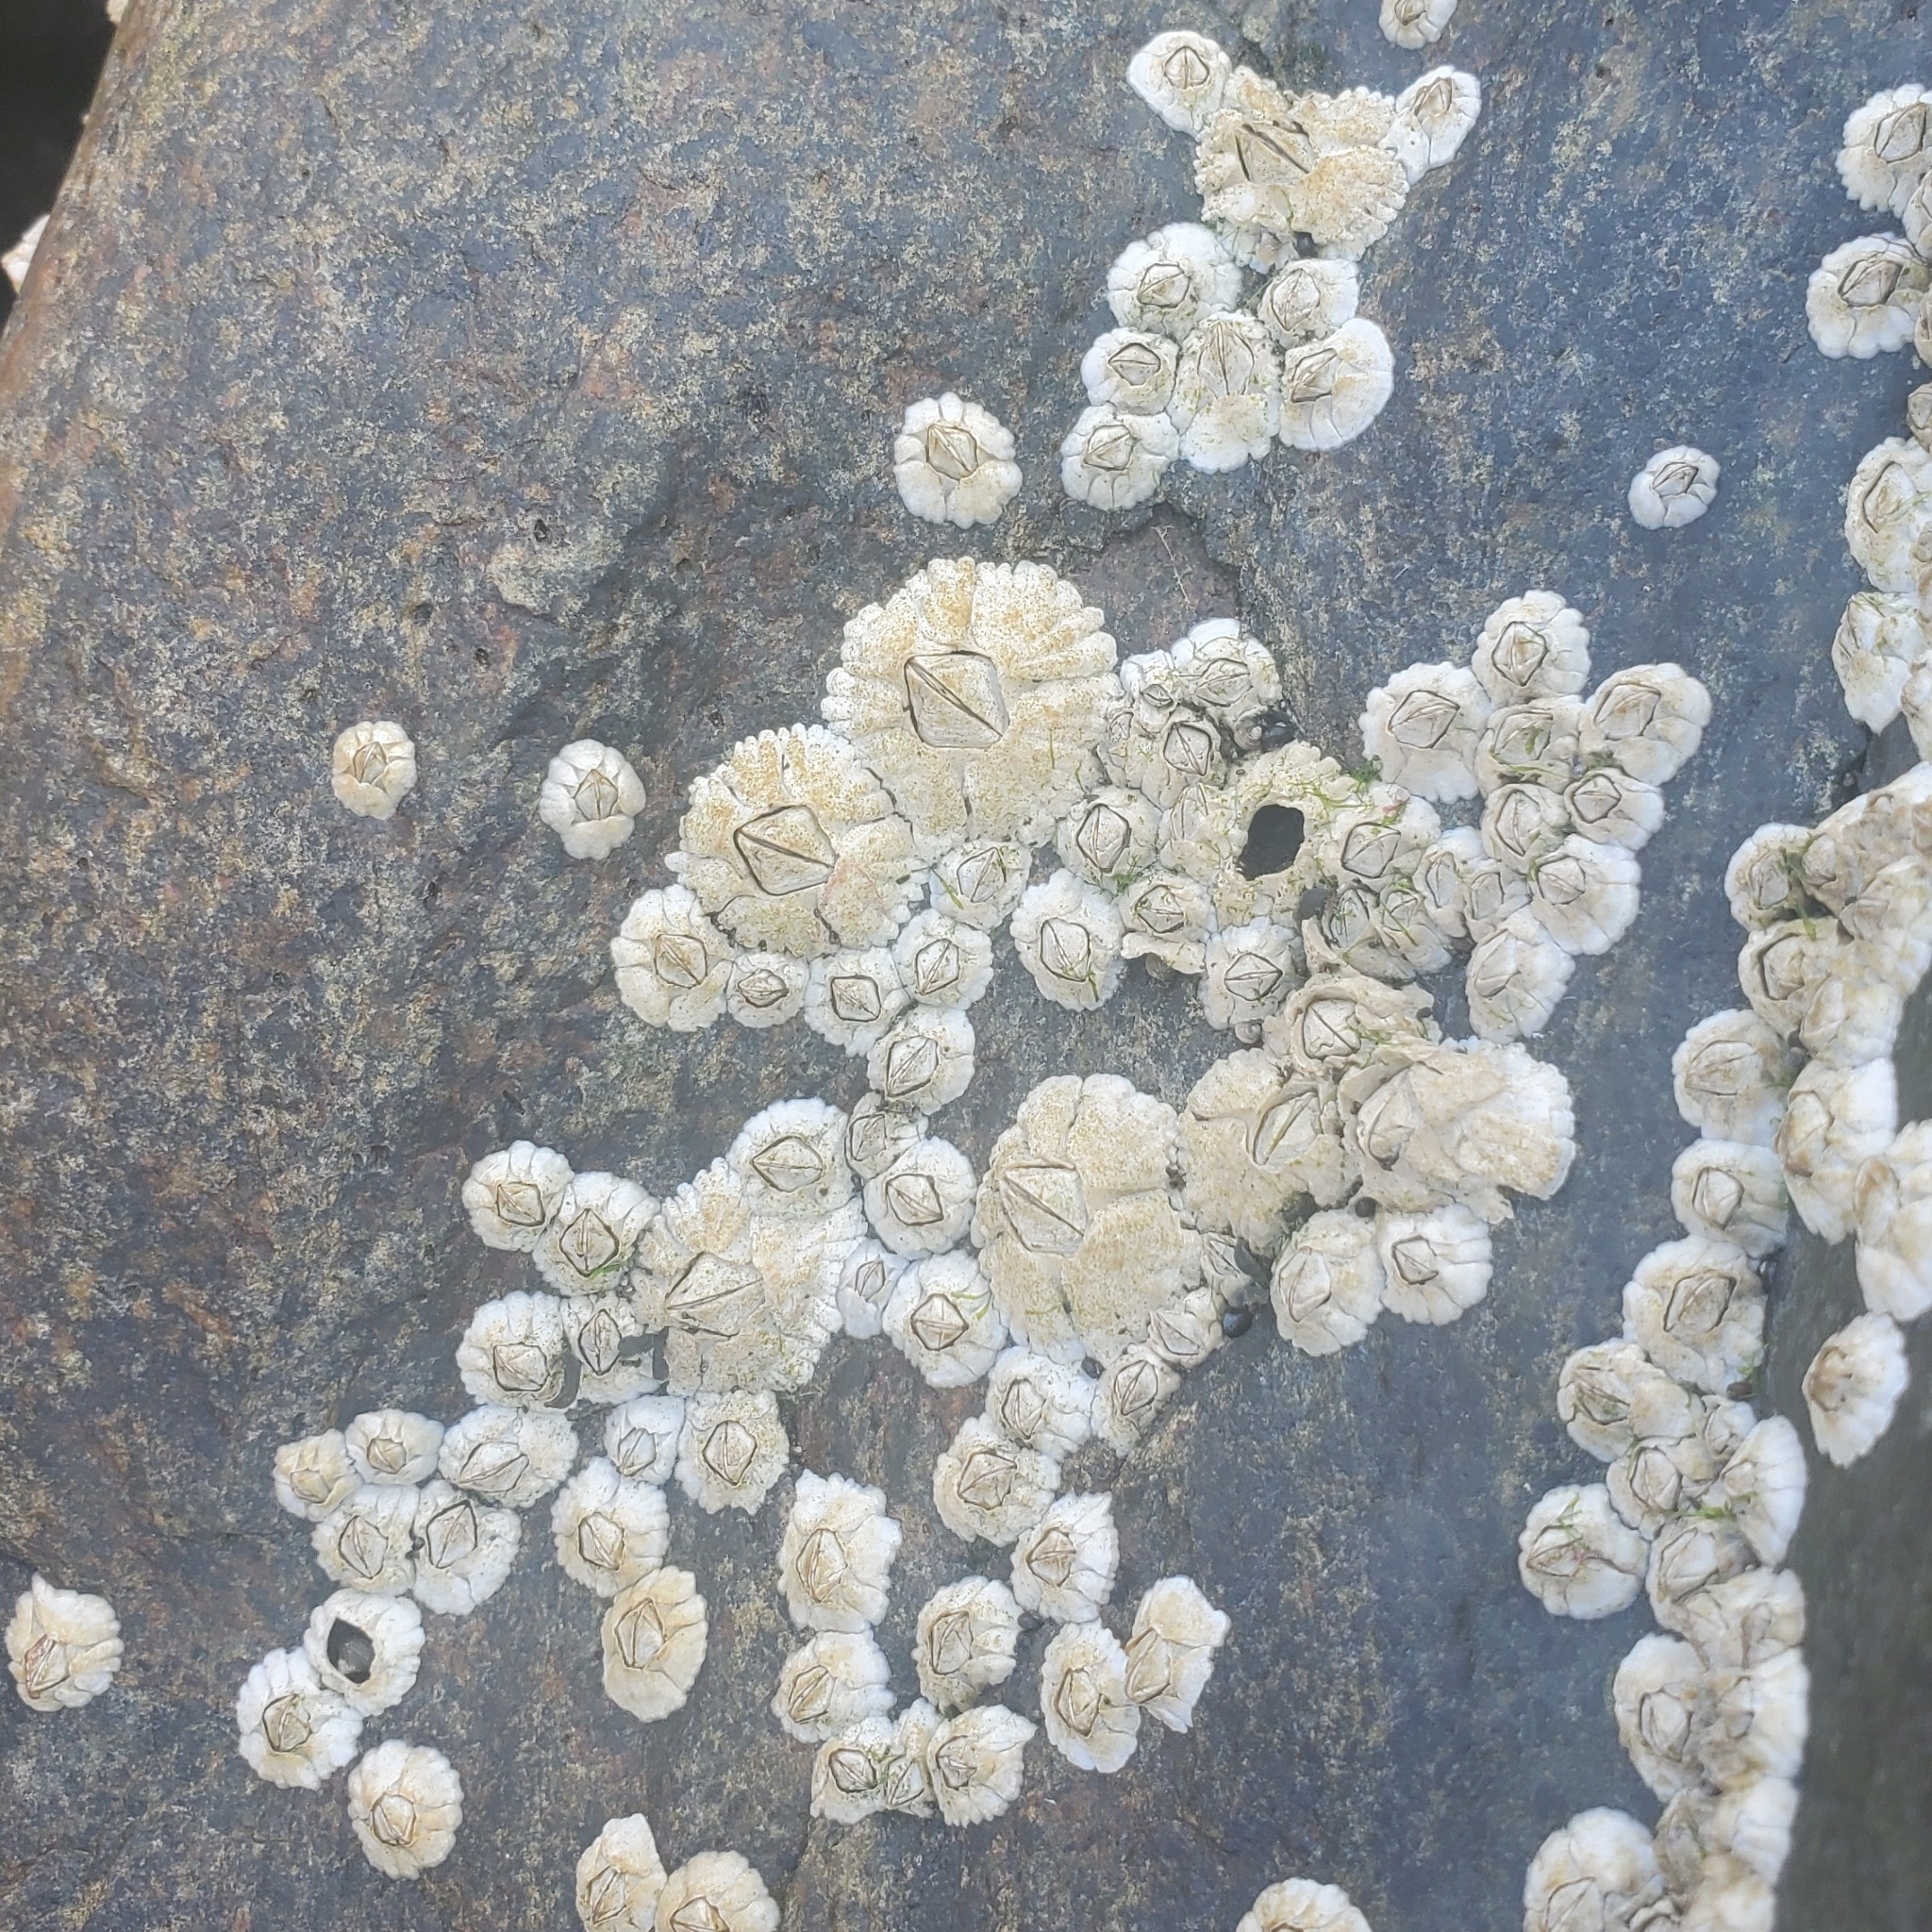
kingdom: Animalia
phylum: Arthropoda
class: Maxillopoda
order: Sessilia
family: Archaeobalanidae
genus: Semibalanus
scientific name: Semibalanus balanoides
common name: Acorn barnacle
